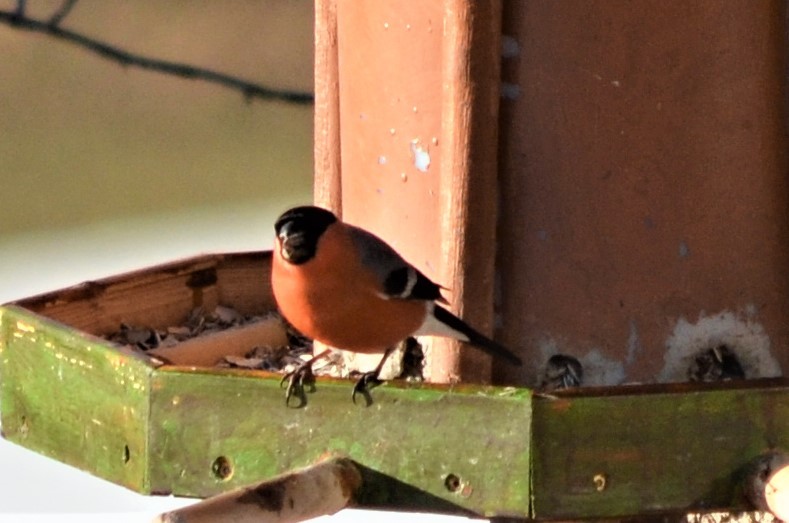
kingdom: Animalia
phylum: Chordata
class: Aves
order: Passeriformes
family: Fringillidae
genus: Pyrrhula
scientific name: Pyrrhula pyrrhula
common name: Eurasian bullfinch
